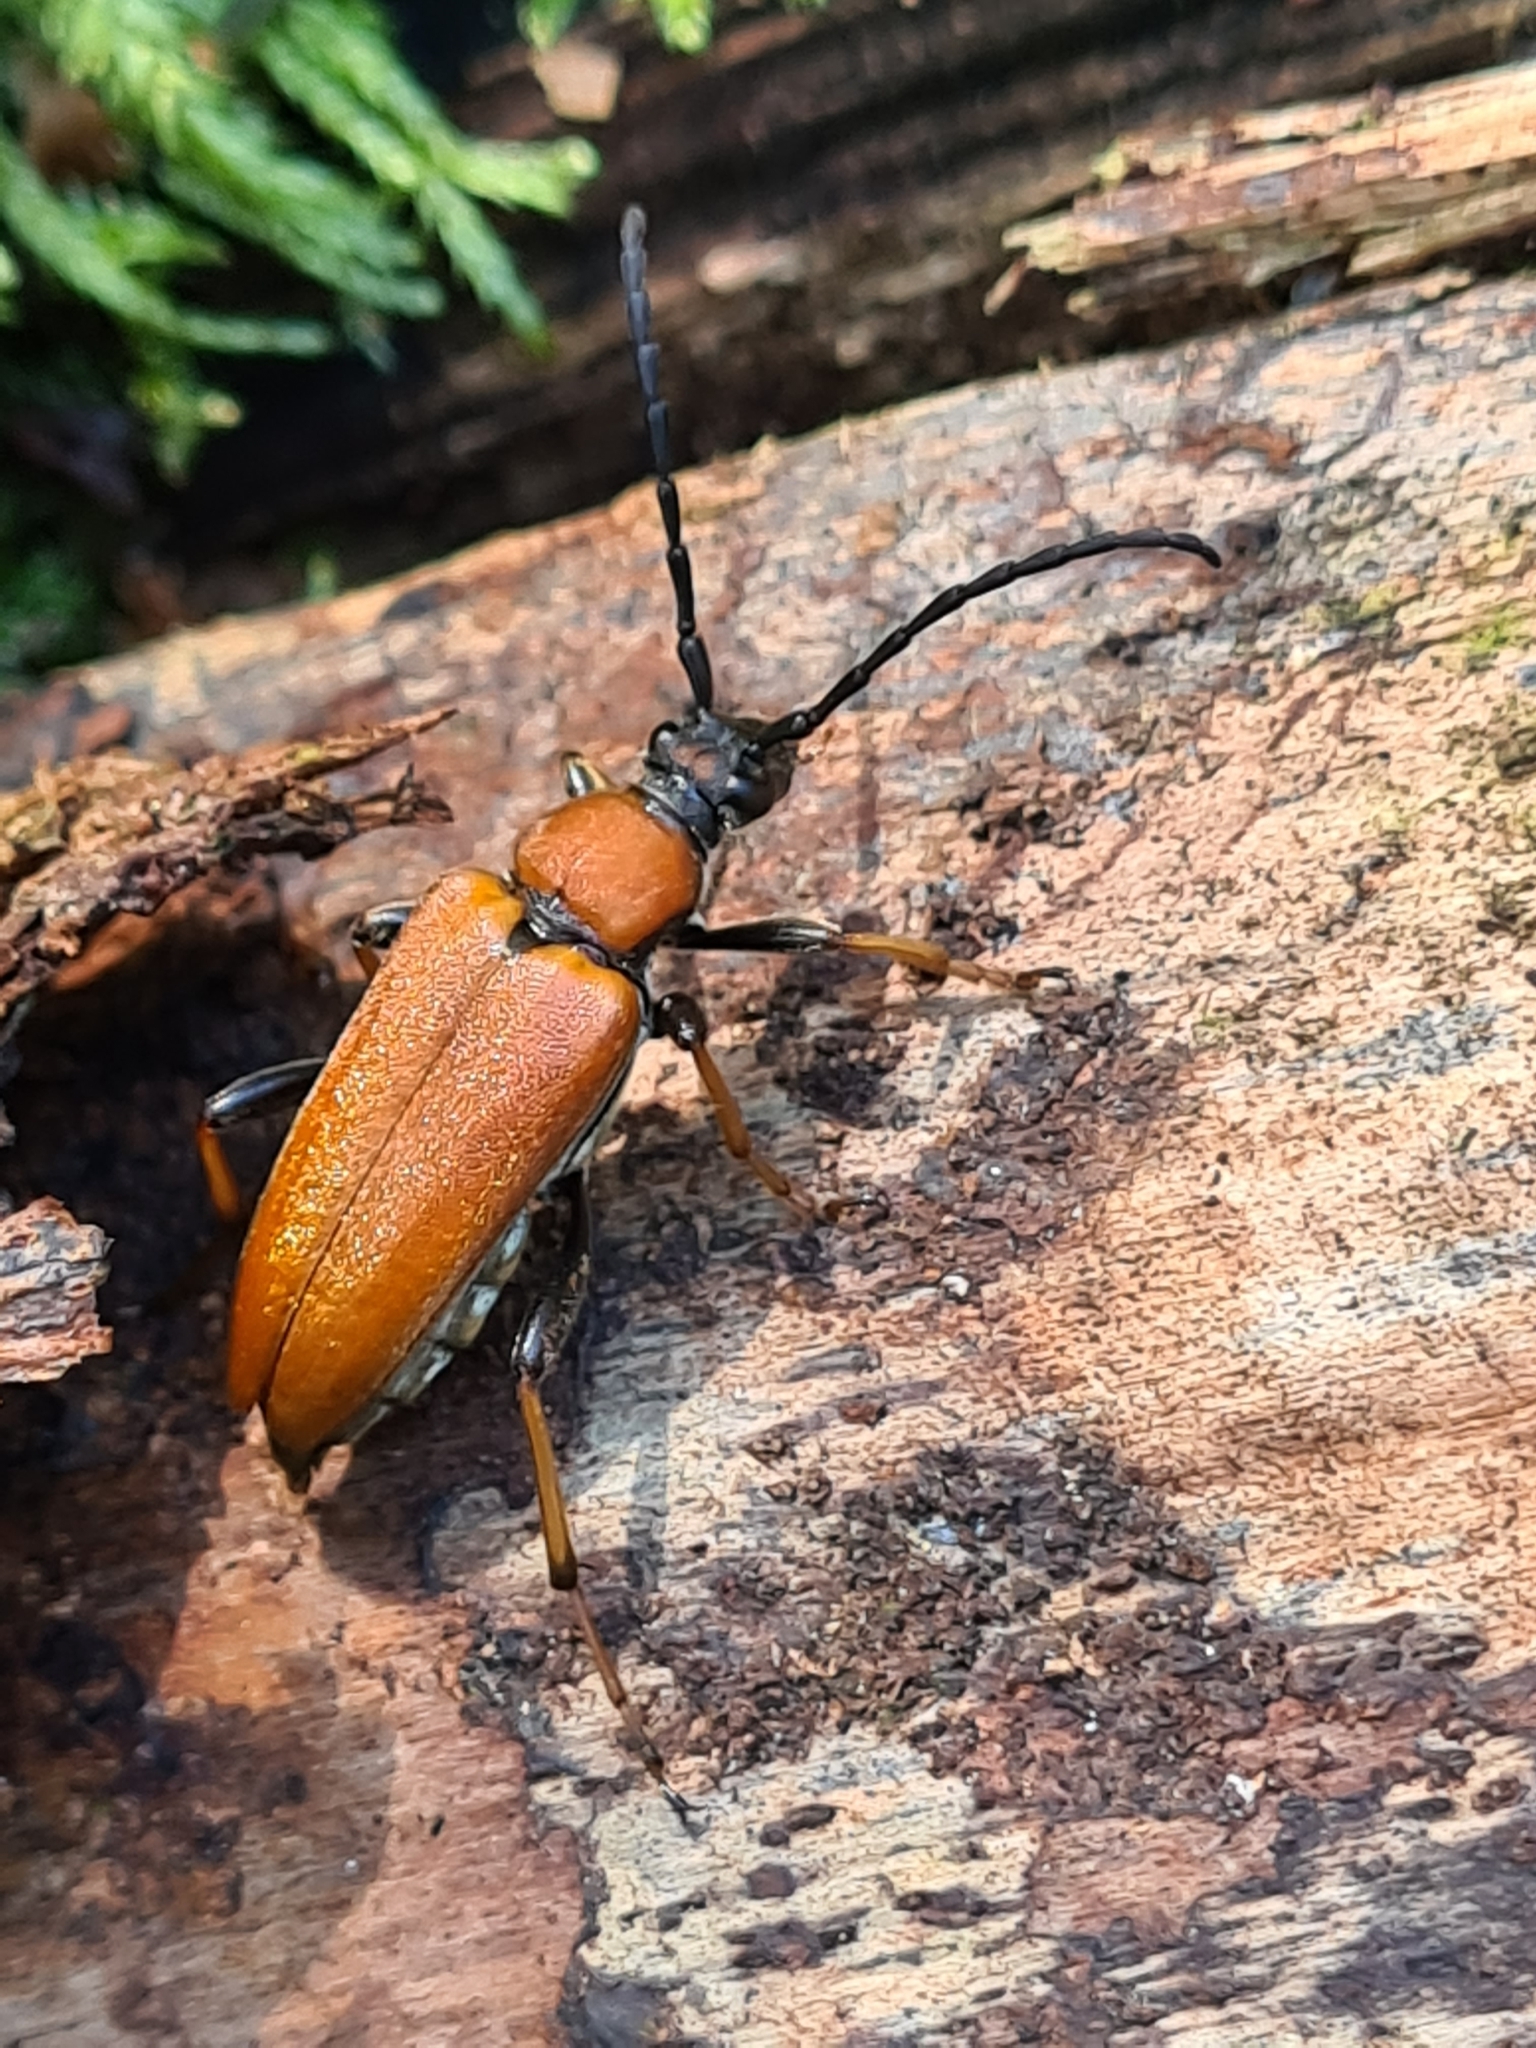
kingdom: Animalia
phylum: Arthropoda
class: Insecta
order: Coleoptera
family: Cerambycidae
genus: Stictoleptura
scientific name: Stictoleptura rubra
